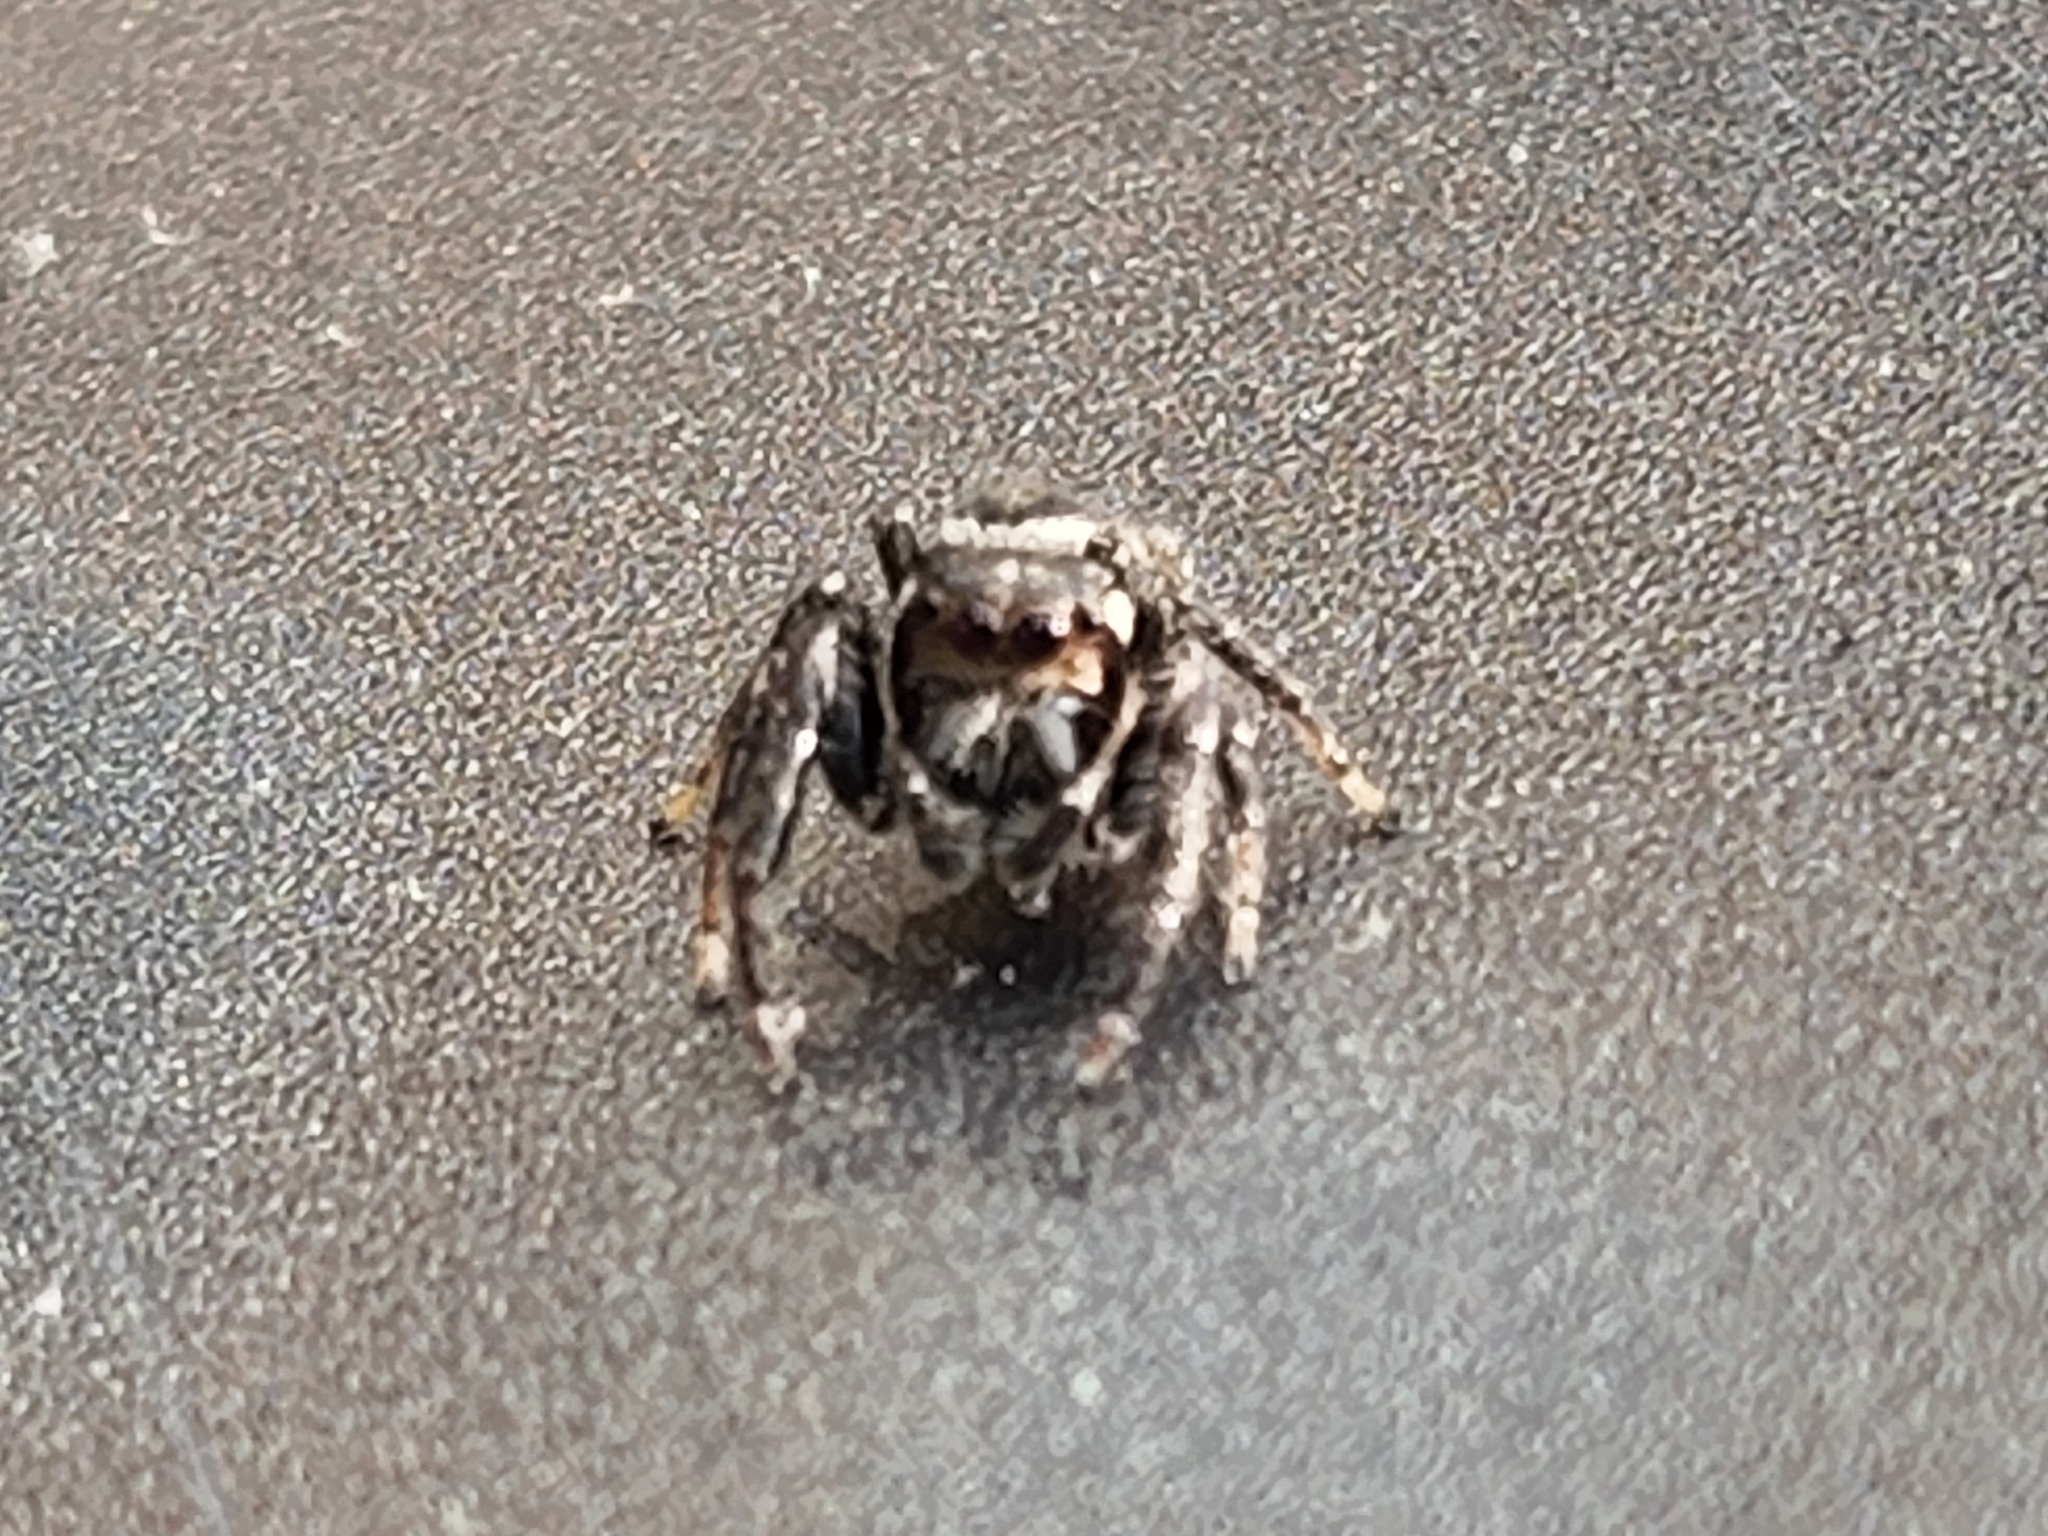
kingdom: Animalia
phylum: Arthropoda
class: Arachnida
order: Araneae
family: Salticidae
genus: Eris
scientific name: Eris militaris
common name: Bronze jumper
